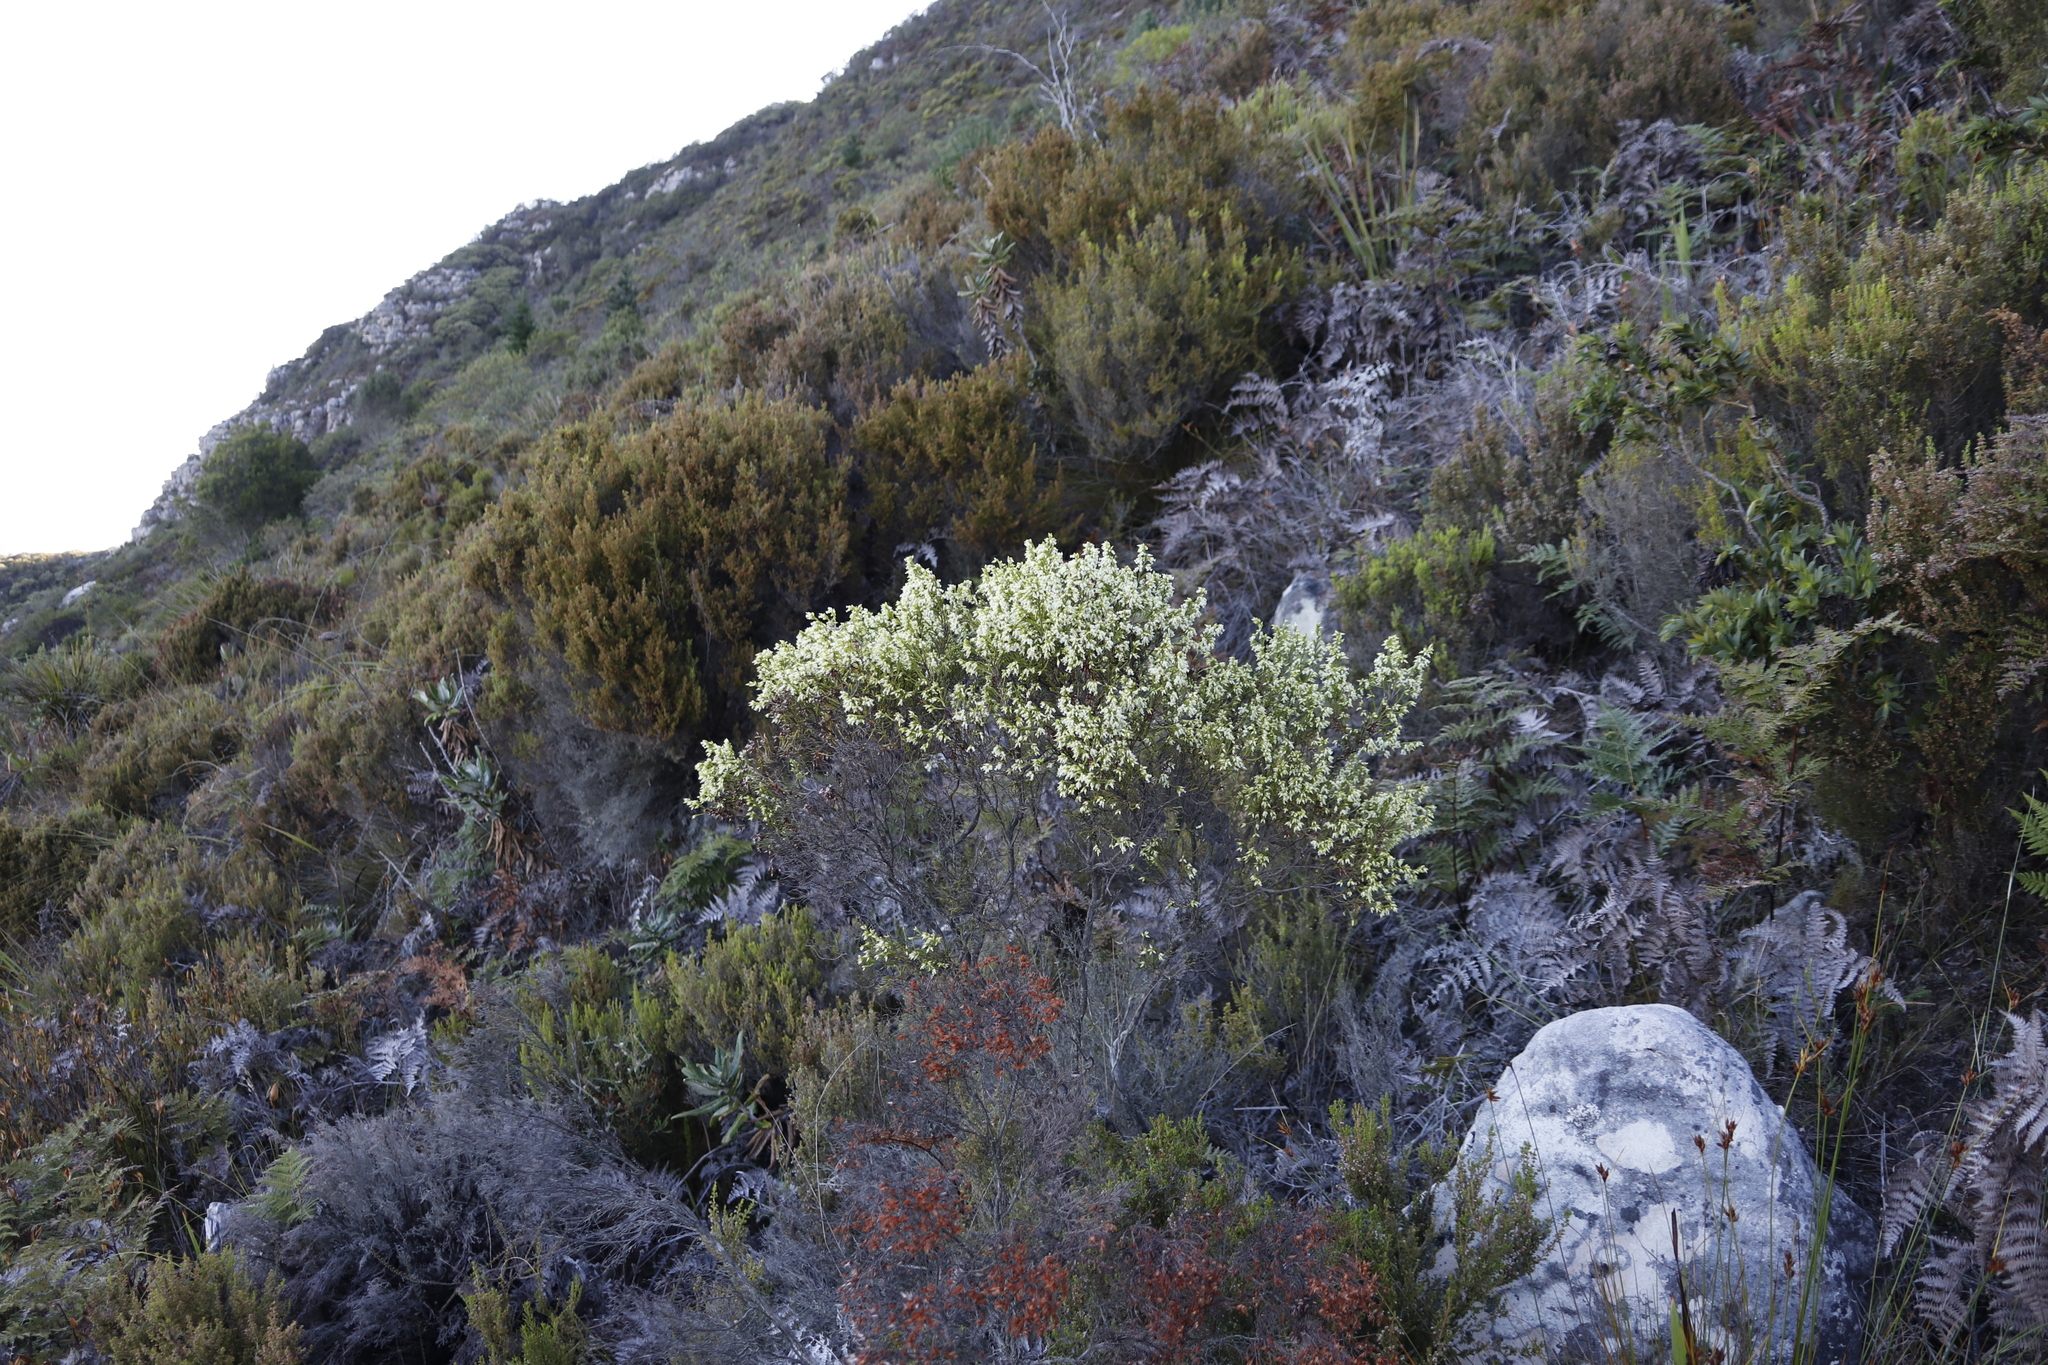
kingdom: Plantae
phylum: Tracheophyta
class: Magnoliopsida
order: Ericales
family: Ericaceae
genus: Erica
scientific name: Erica lutea
